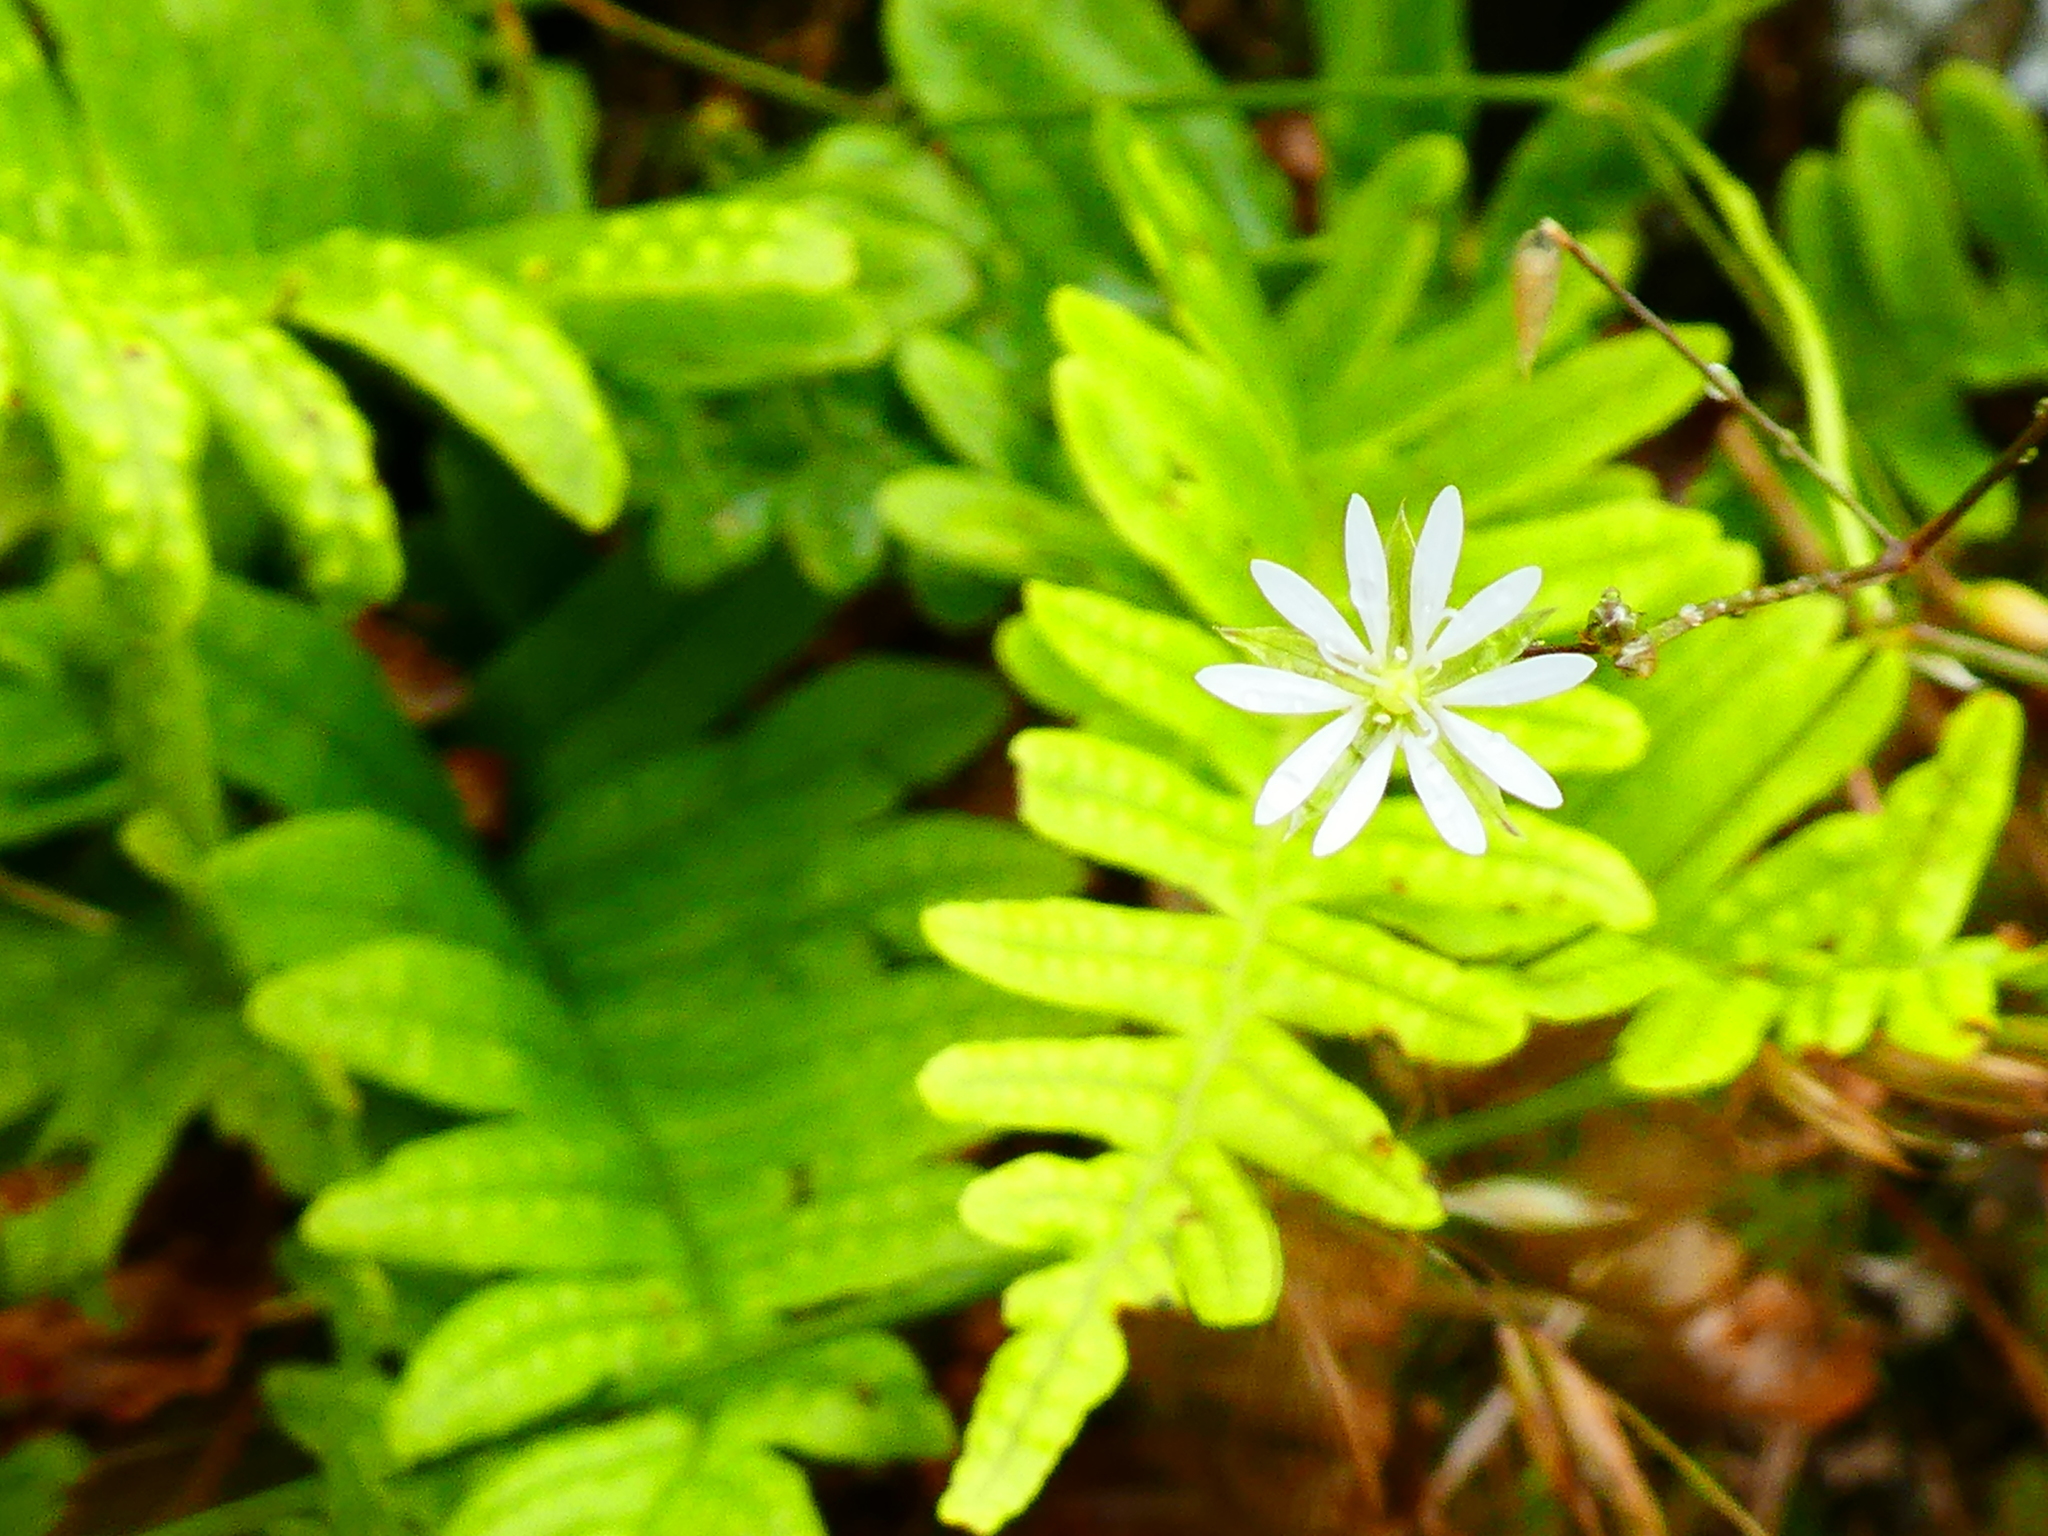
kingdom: Plantae
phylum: Tracheophyta
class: Magnoliopsida
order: Caryophyllales
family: Caryophyllaceae
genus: Stellaria
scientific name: Stellaria graminea
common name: Grass-like starwort
